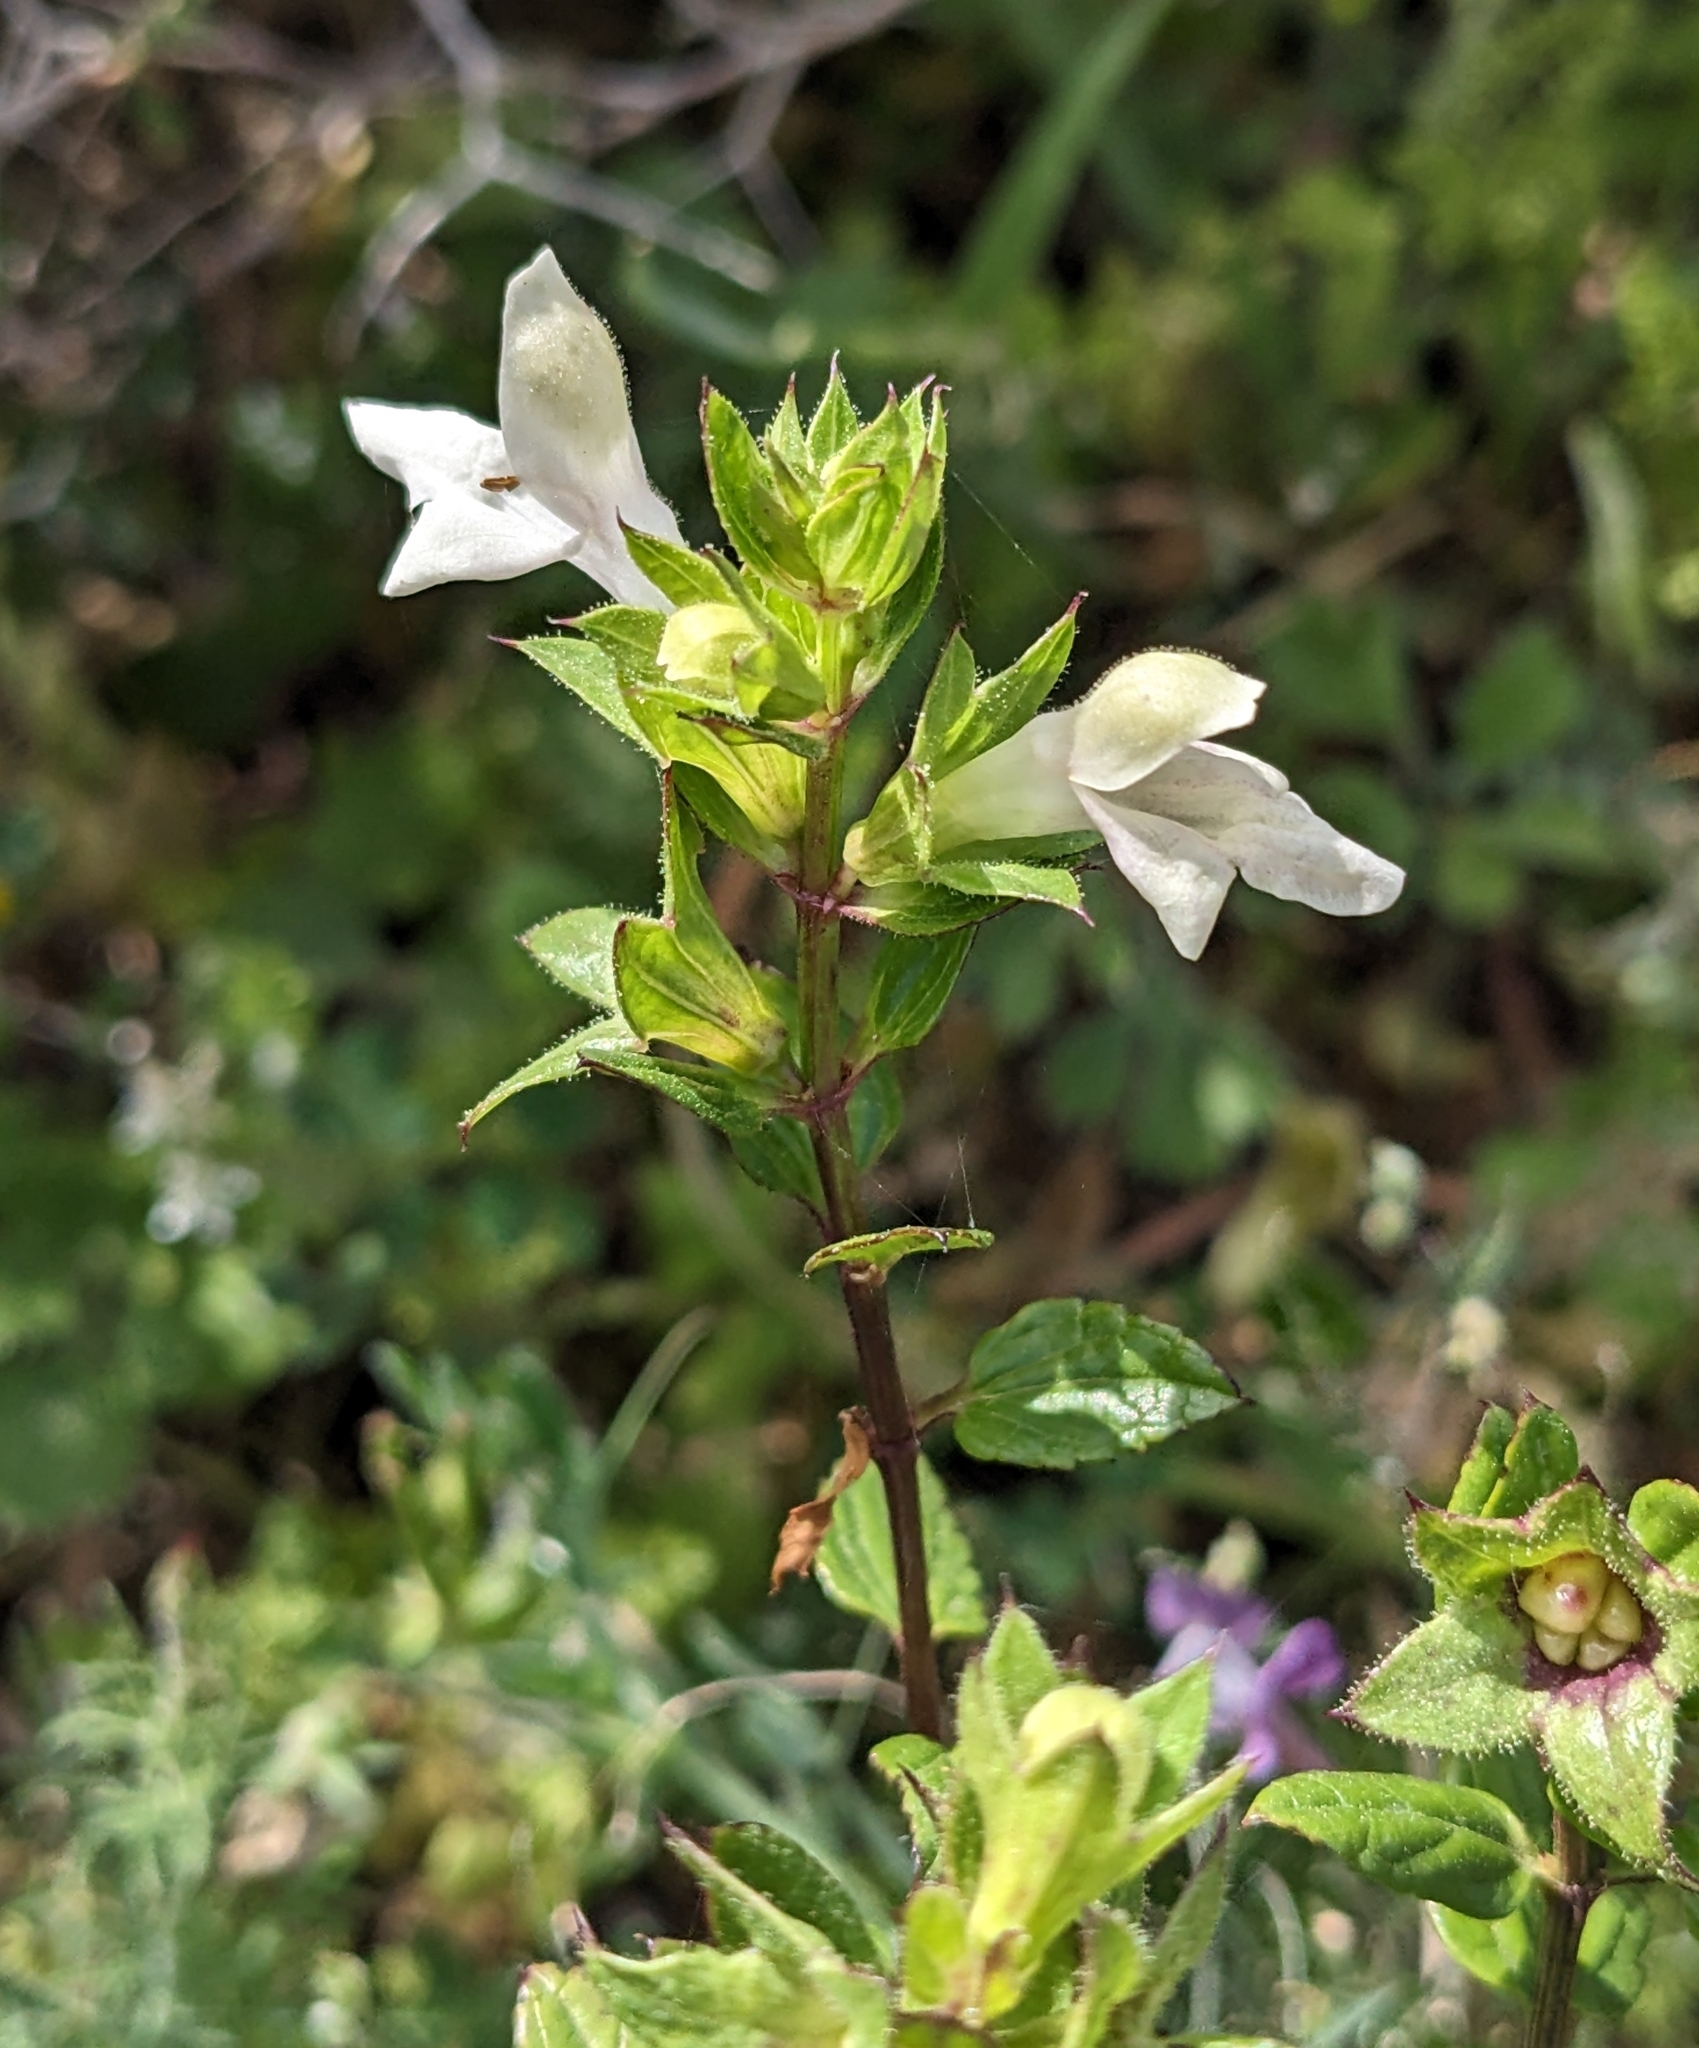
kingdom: Plantae
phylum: Tracheophyta
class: Magnoliopsida
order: Lamiales
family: Lamiaceae
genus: Prasium
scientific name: Prasium majus
